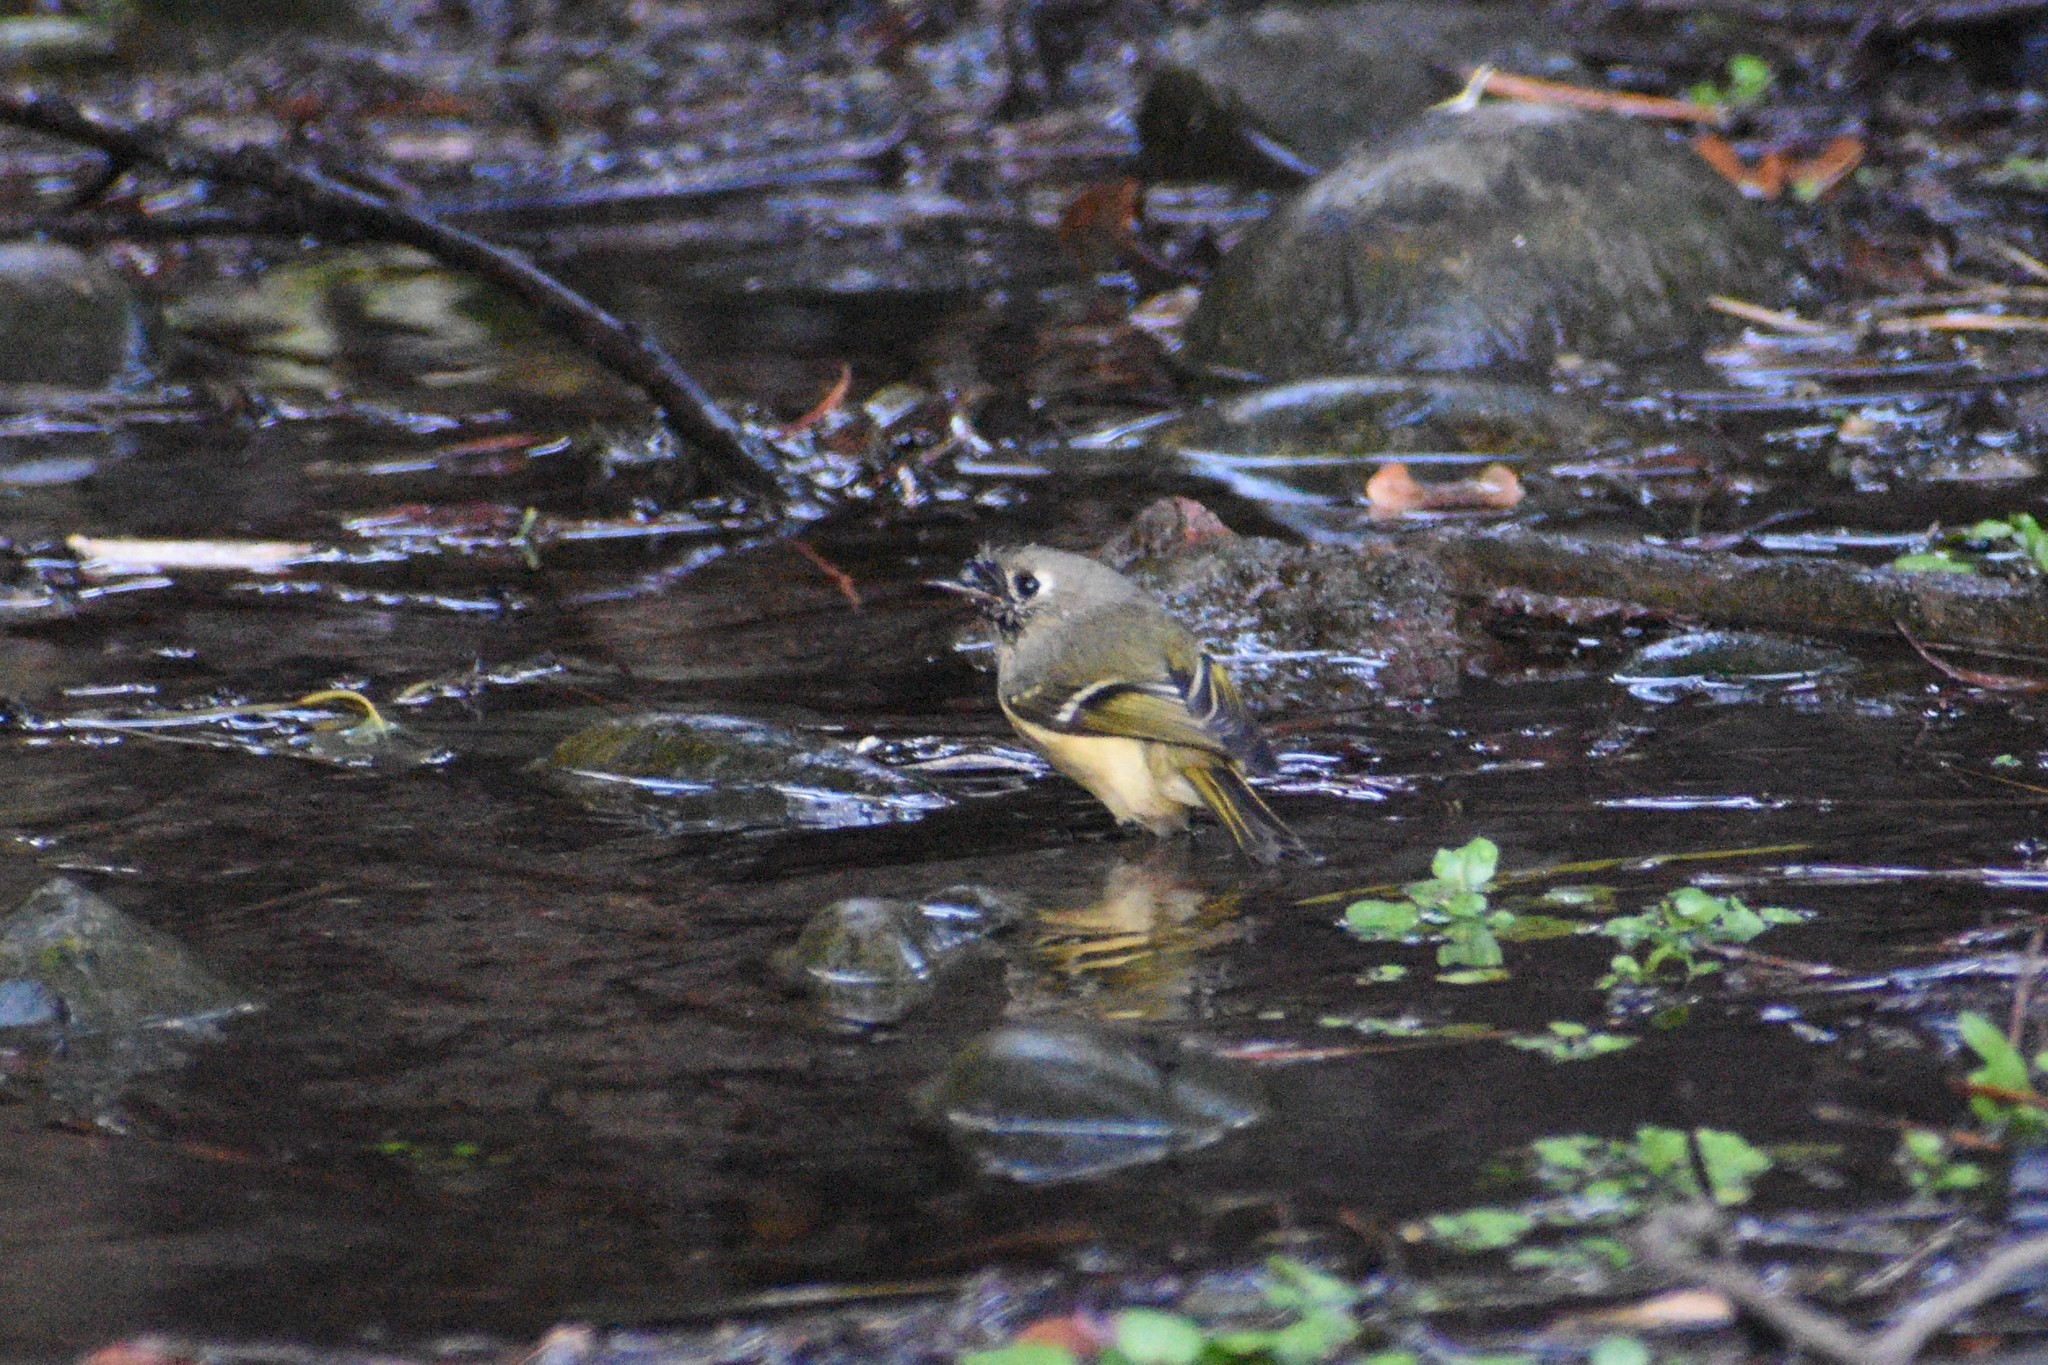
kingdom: Animalia
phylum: Chordata
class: Aves
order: Passeriformes
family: Regulidae
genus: Regulus
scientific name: Regulus calendula
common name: Ruby-crowned kinglet
